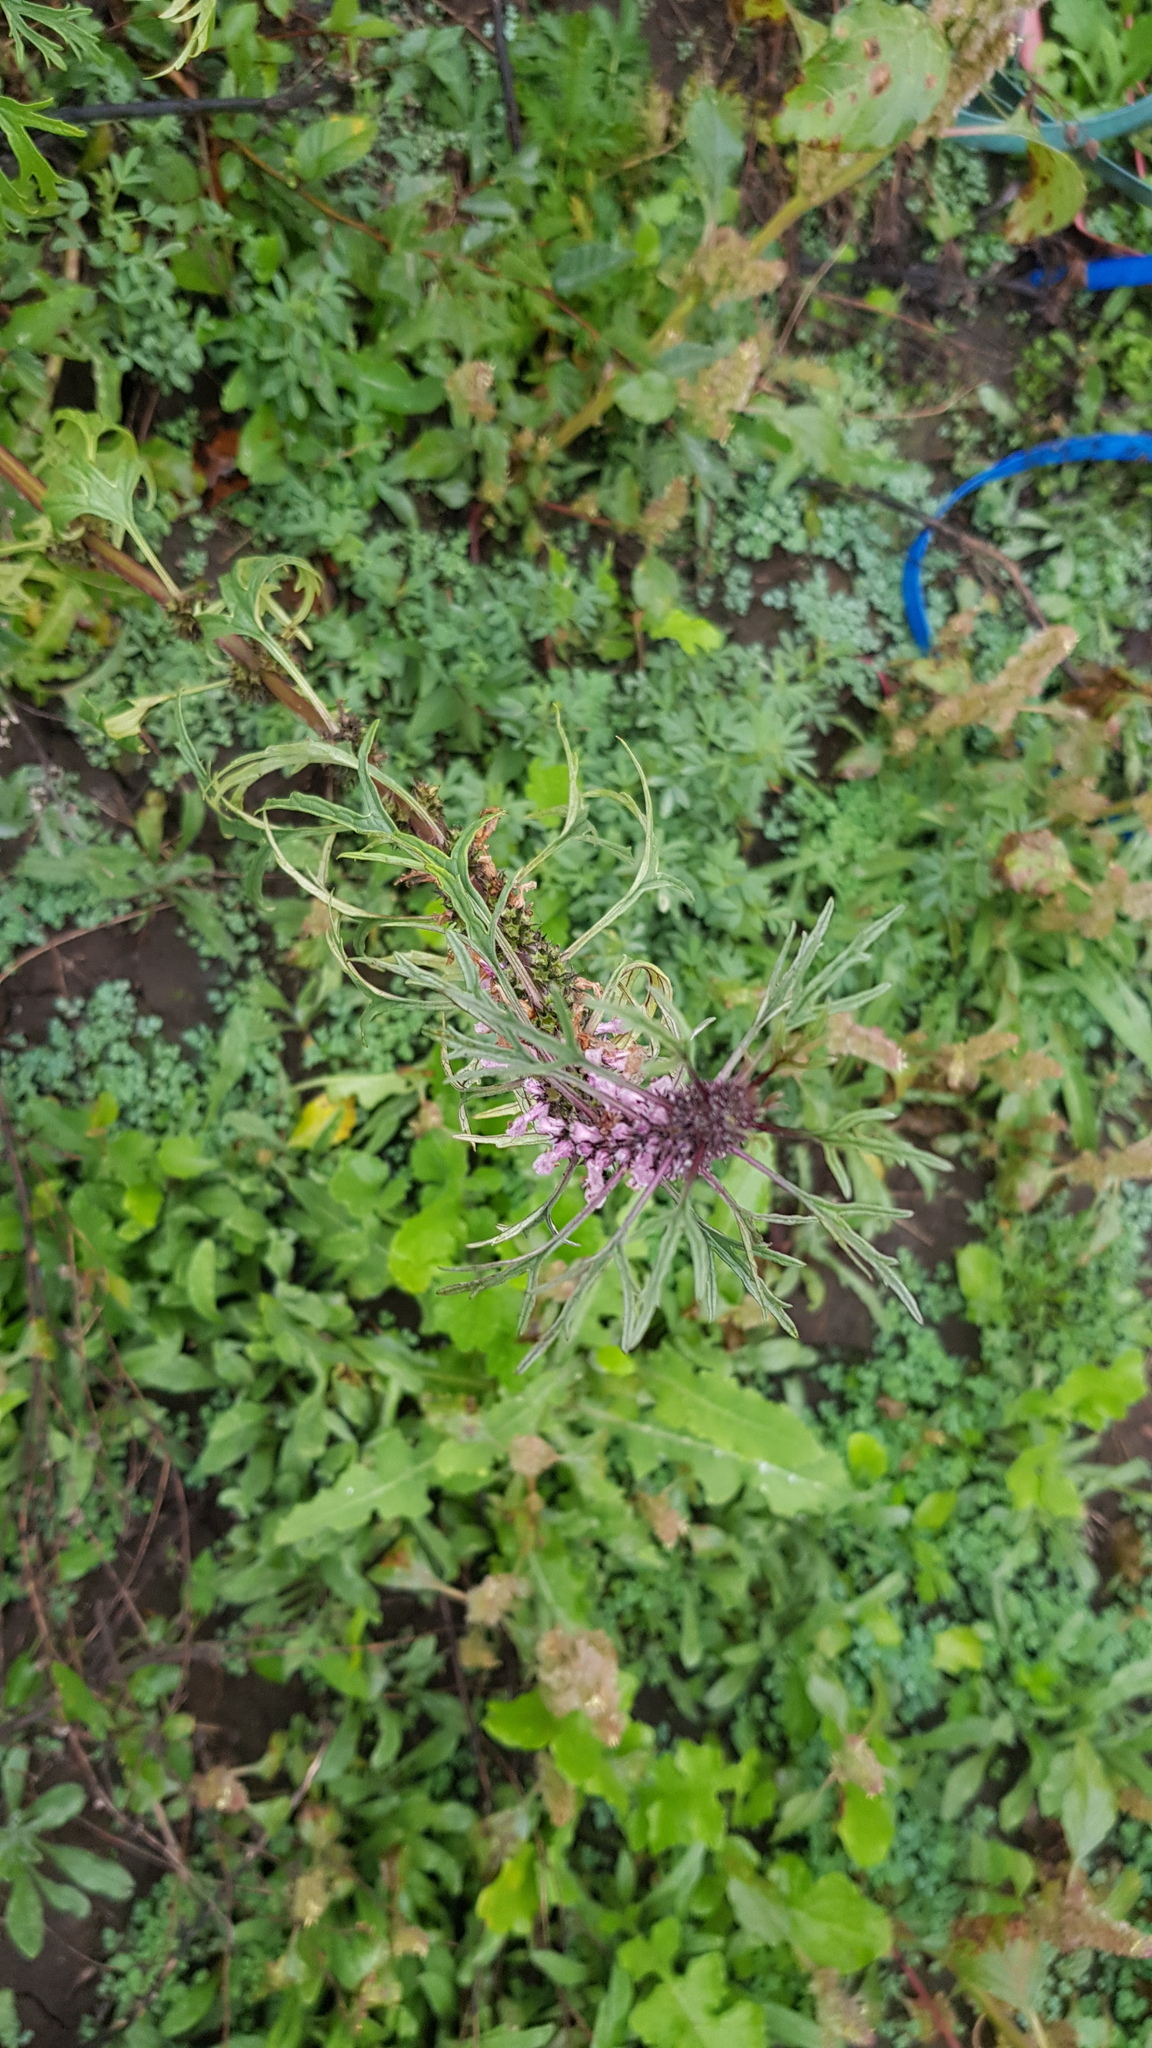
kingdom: Plantae
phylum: Tracheophyta
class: Magnoliopsida
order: Lamiales
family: Lamiaceae
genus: Leonurus
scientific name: Leonurus sibiricus
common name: Honeyweed
